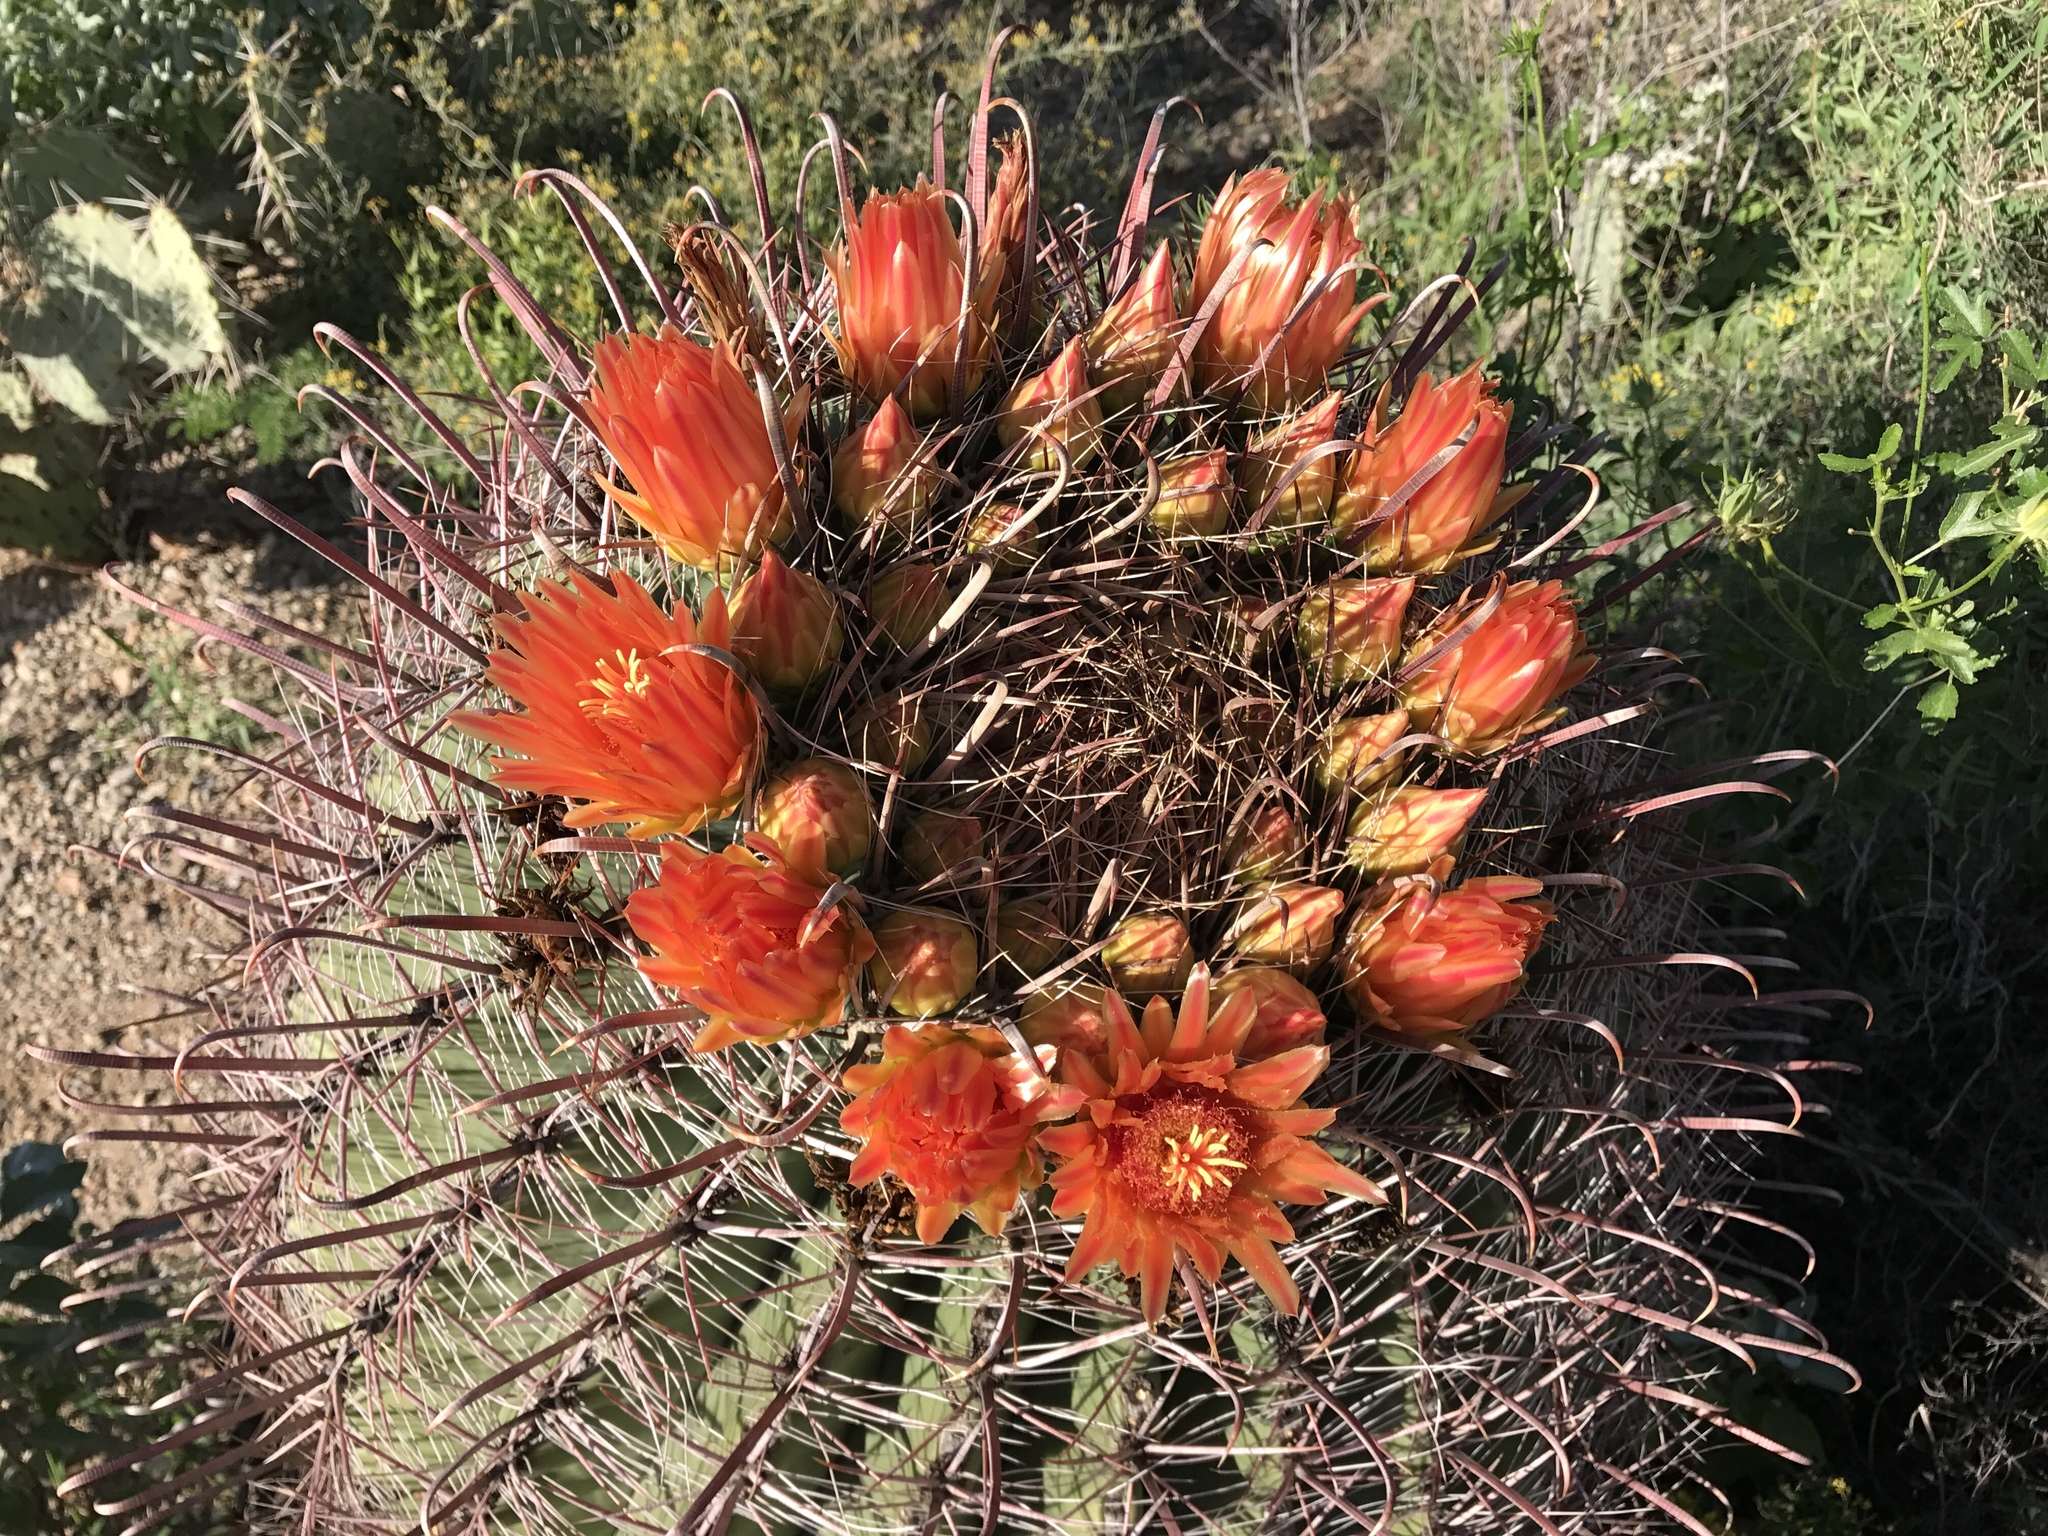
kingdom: Plantae
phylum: Tracheophyta
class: Magnoliopsida
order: Caryophyllales
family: Cactaceae
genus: Ferocactus
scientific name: Ferocactus wislizeni
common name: Candy barrel cactus
